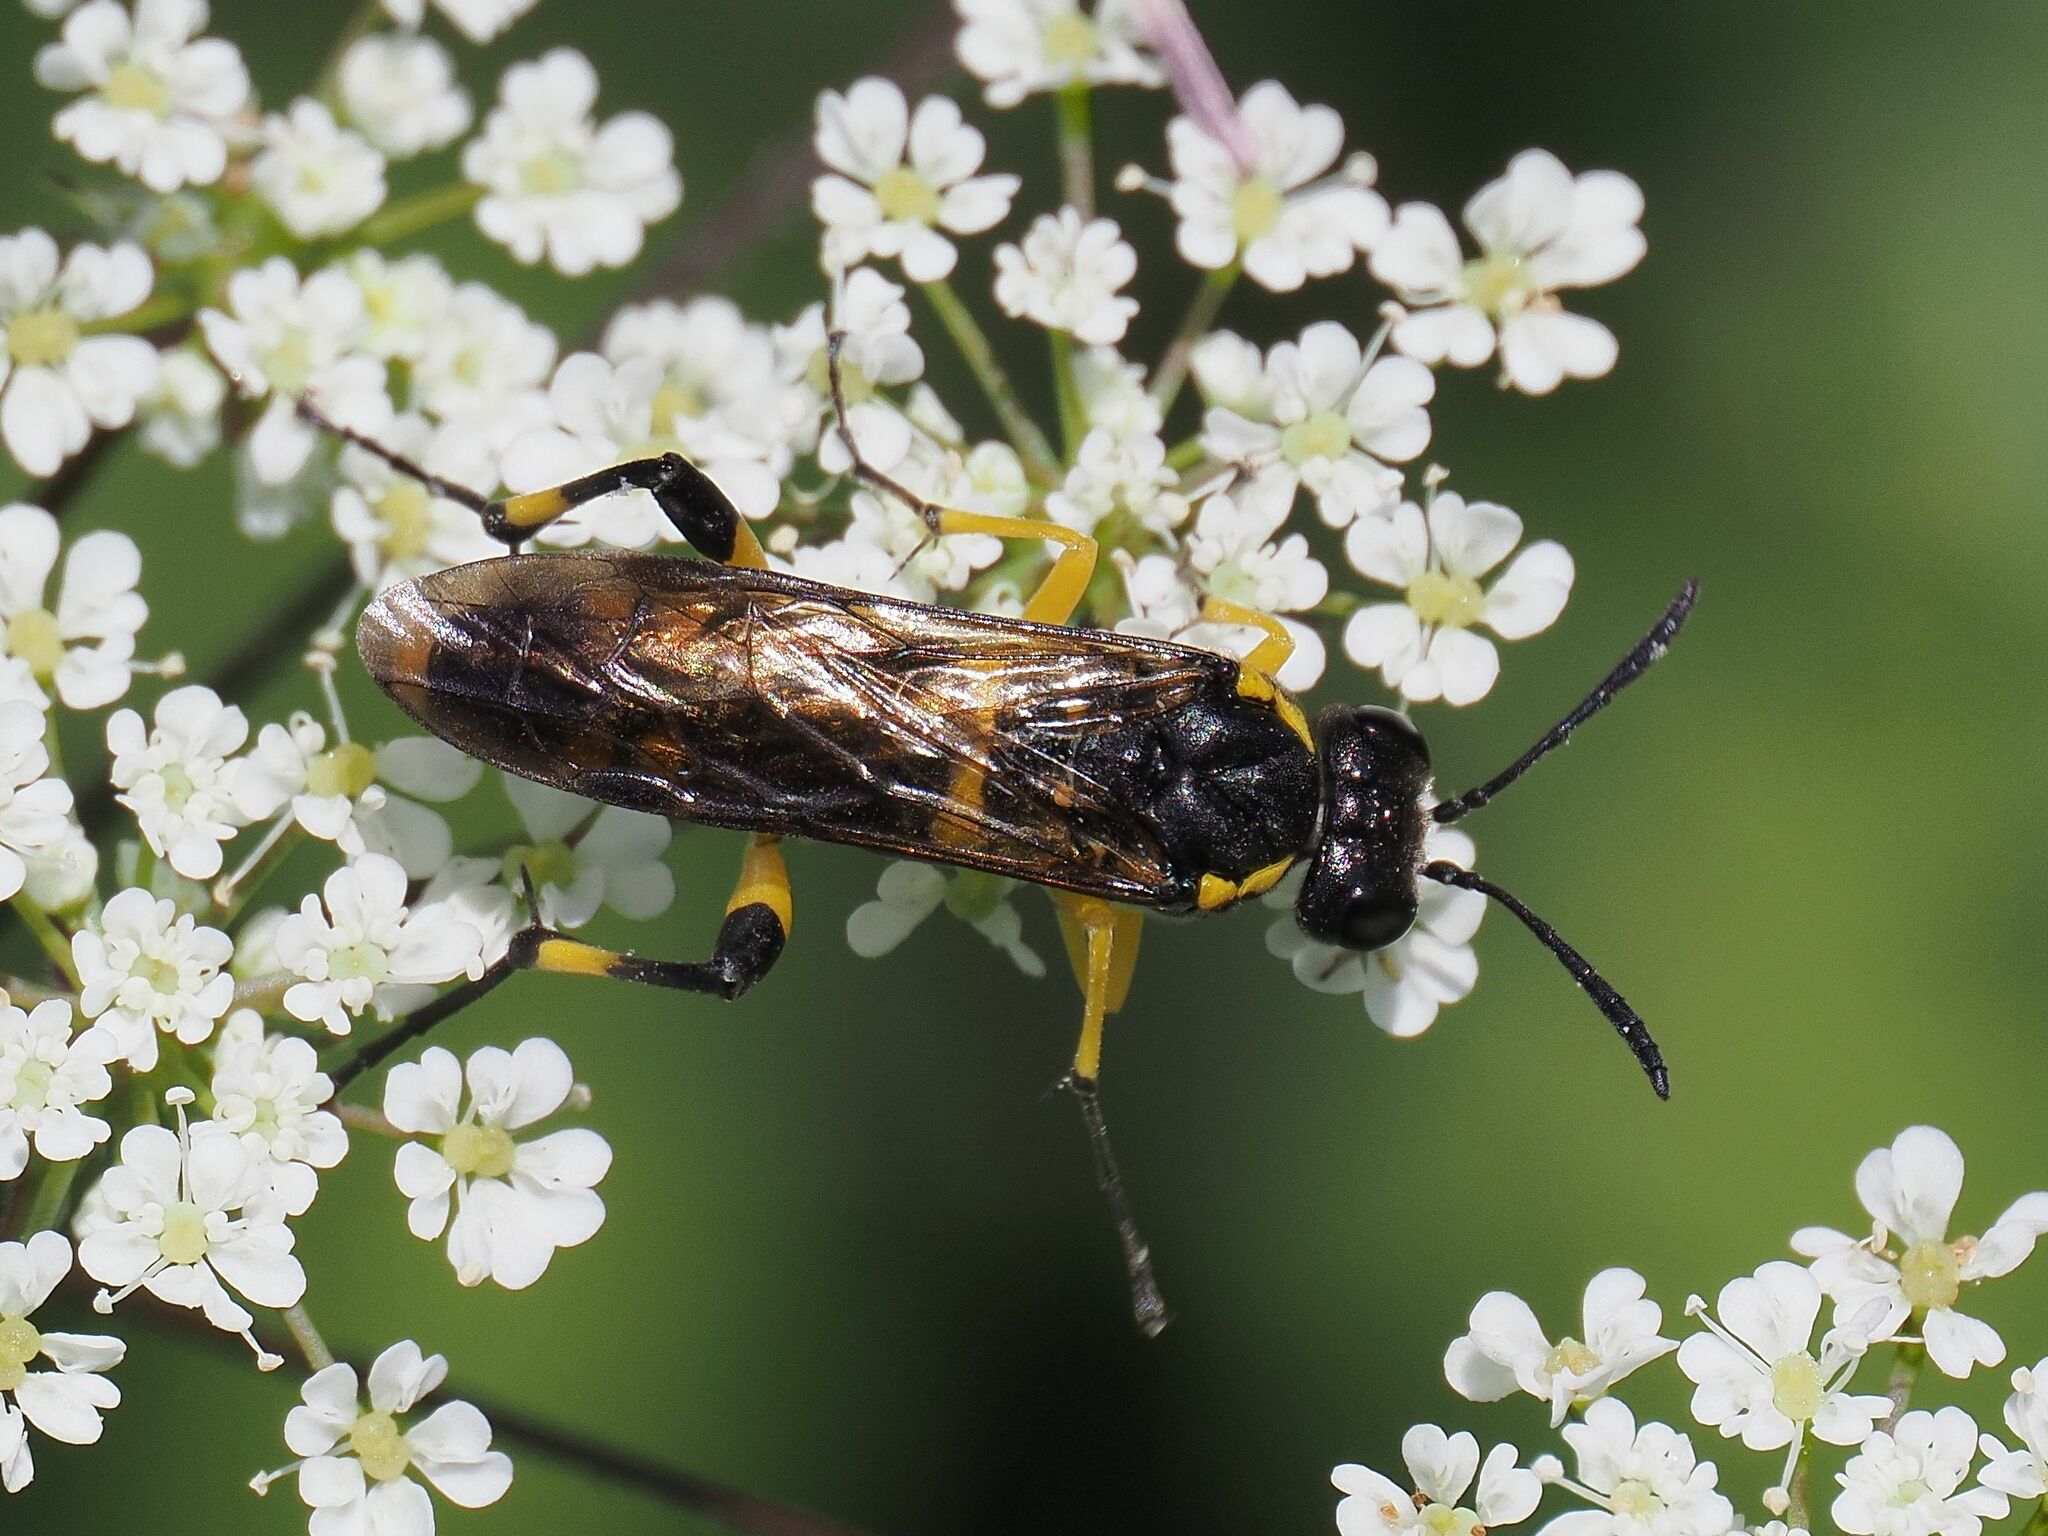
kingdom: Animalia
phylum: Arthropoda
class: Insecta
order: Hymenoptera
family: Tenthredinidae
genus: Macrophya
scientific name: Macrophya montana
